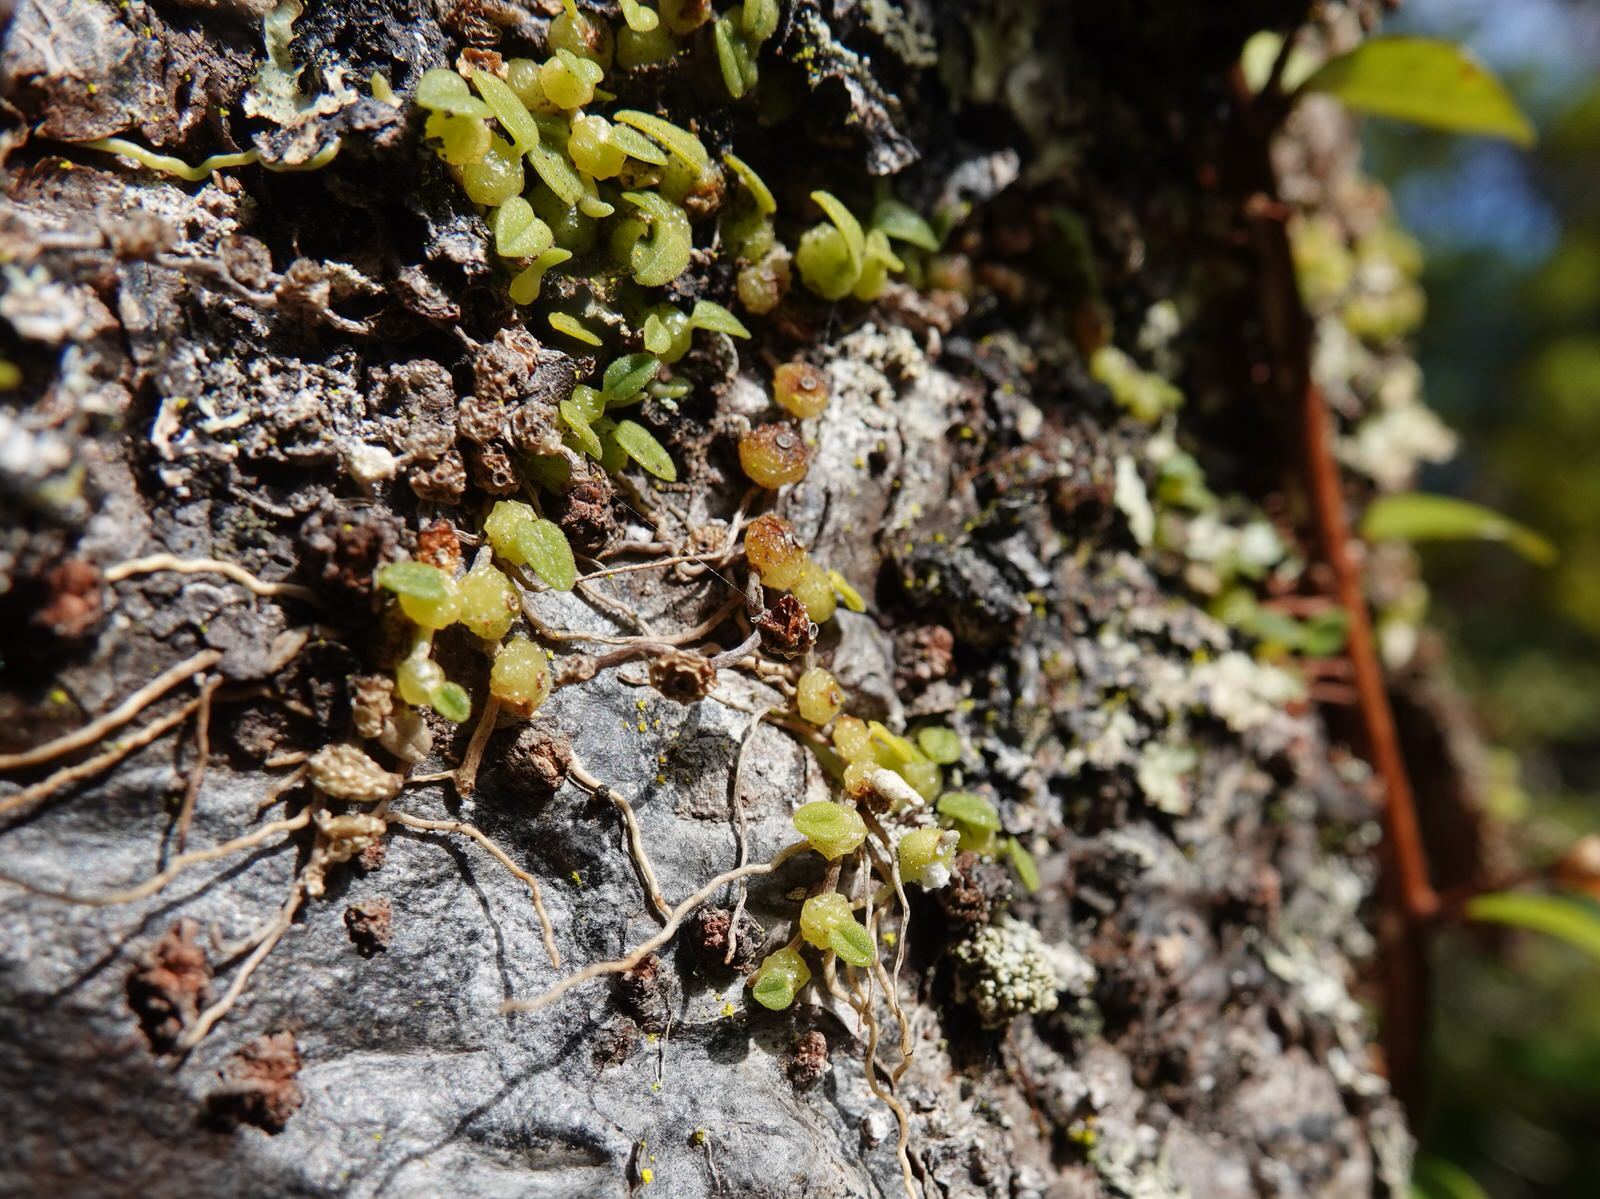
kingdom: Plantae
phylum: Tracheophyta
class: Liliopsida
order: Asparagales
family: Orchidaceae
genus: Bulbophyllum
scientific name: Bulbophyllum pygmaeum
